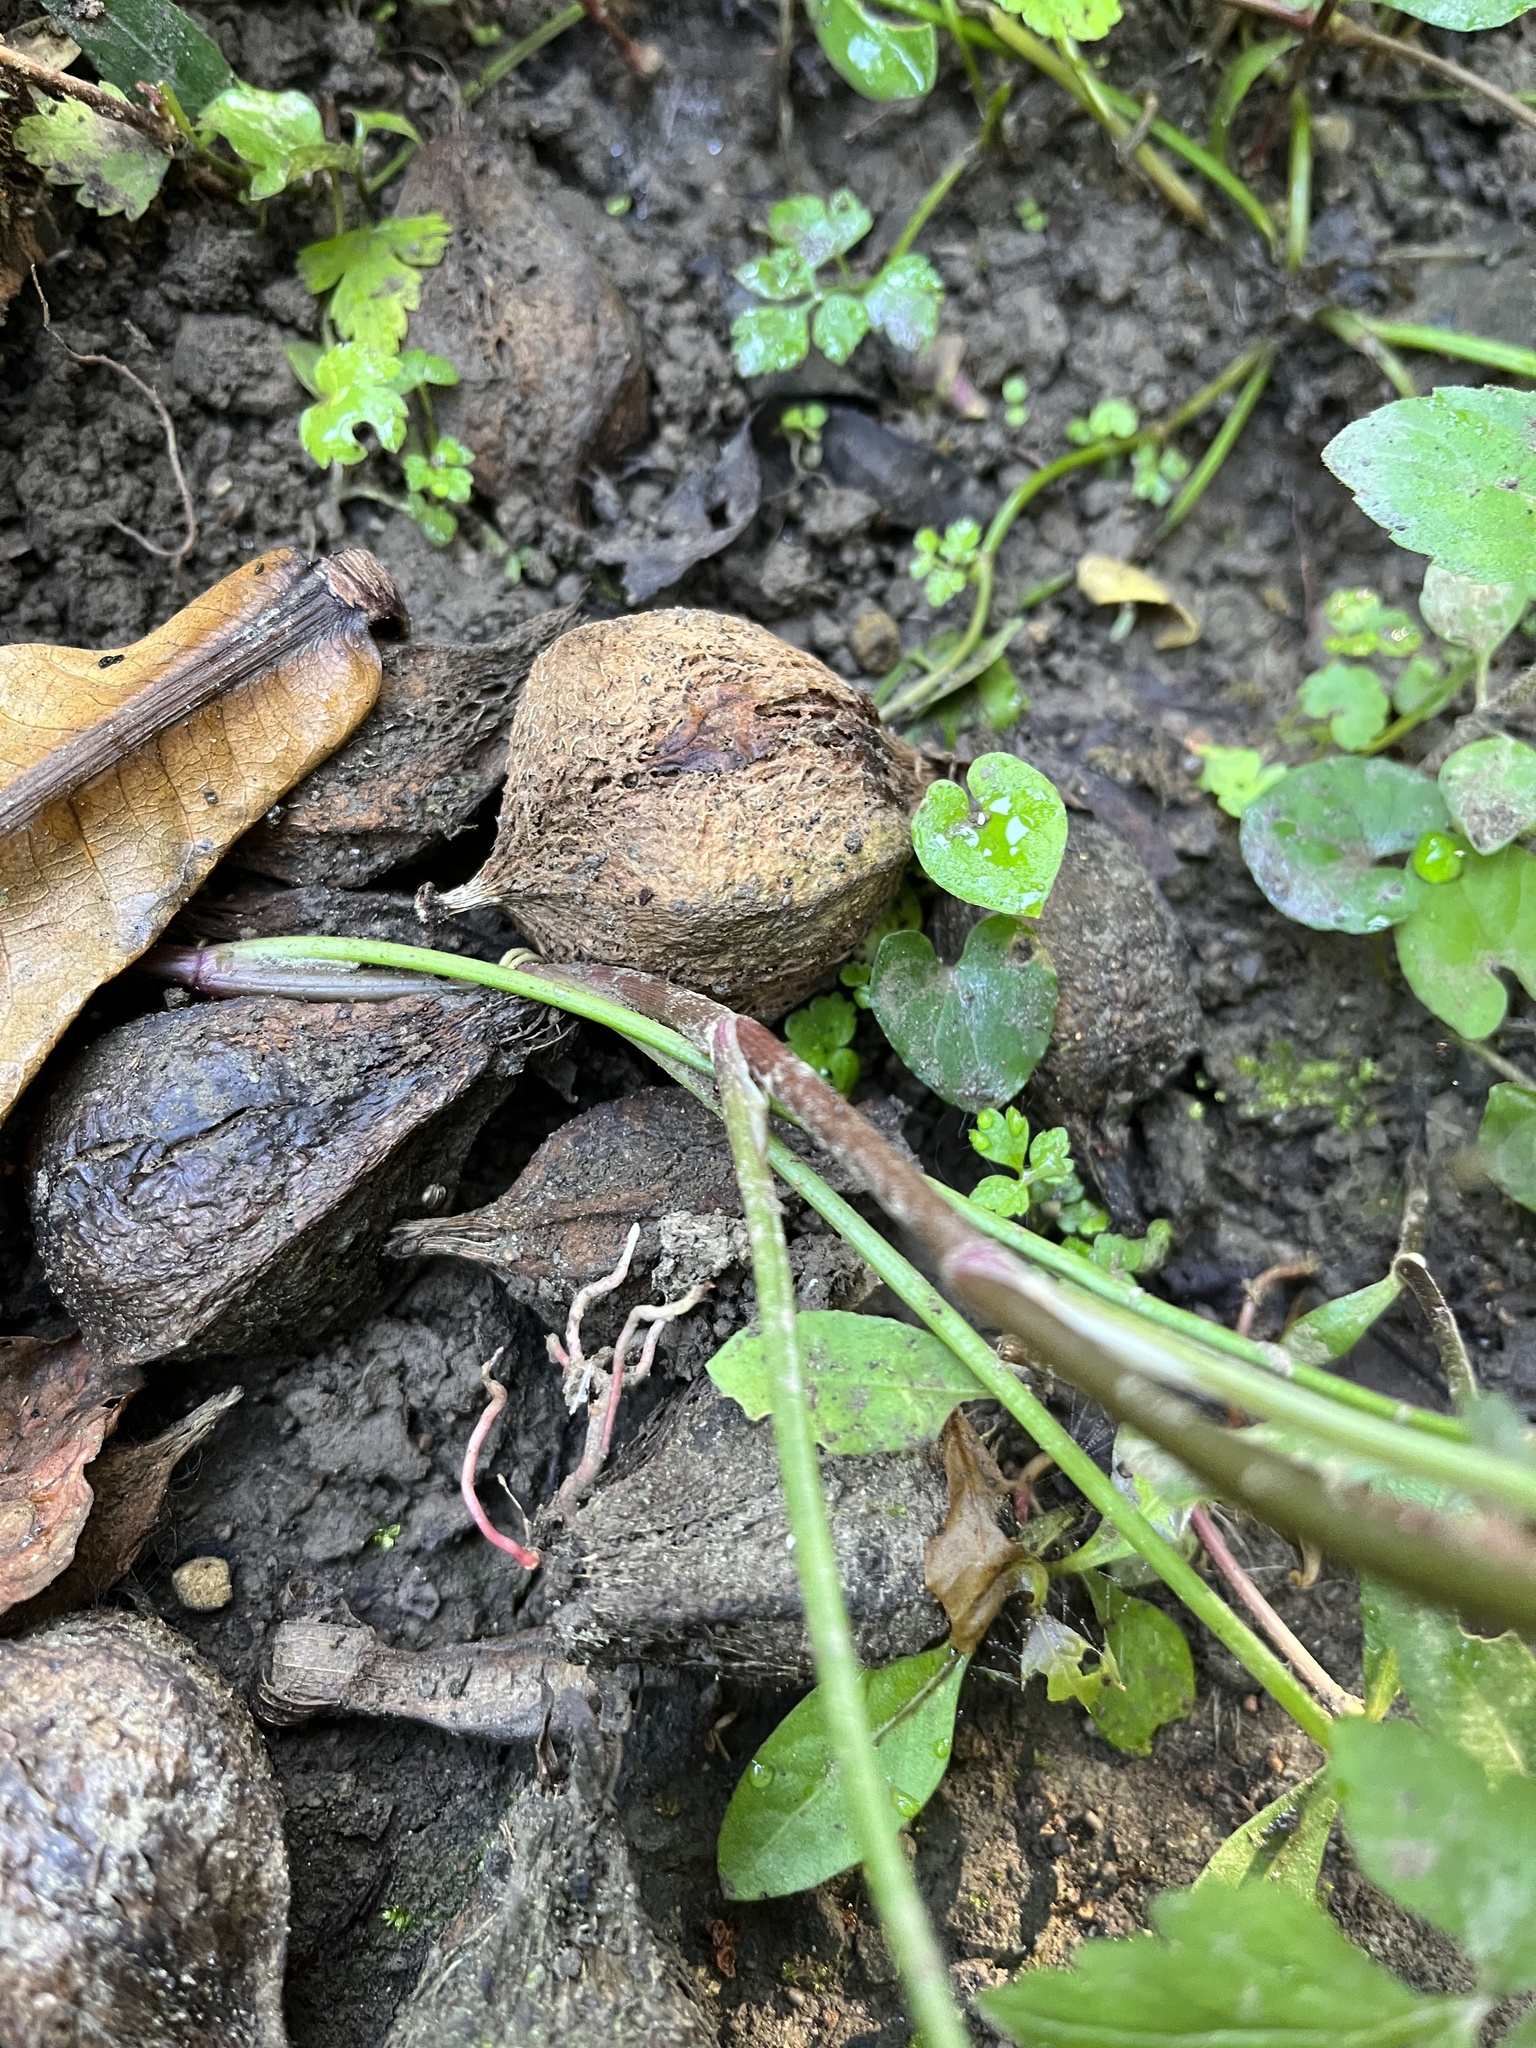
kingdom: Plantae
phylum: Tracheophyta
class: Magnoliopsida
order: Apiales
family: Apiaceae
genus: Oenanthe
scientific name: Oenanthe javanica
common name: Java water-dropwort
